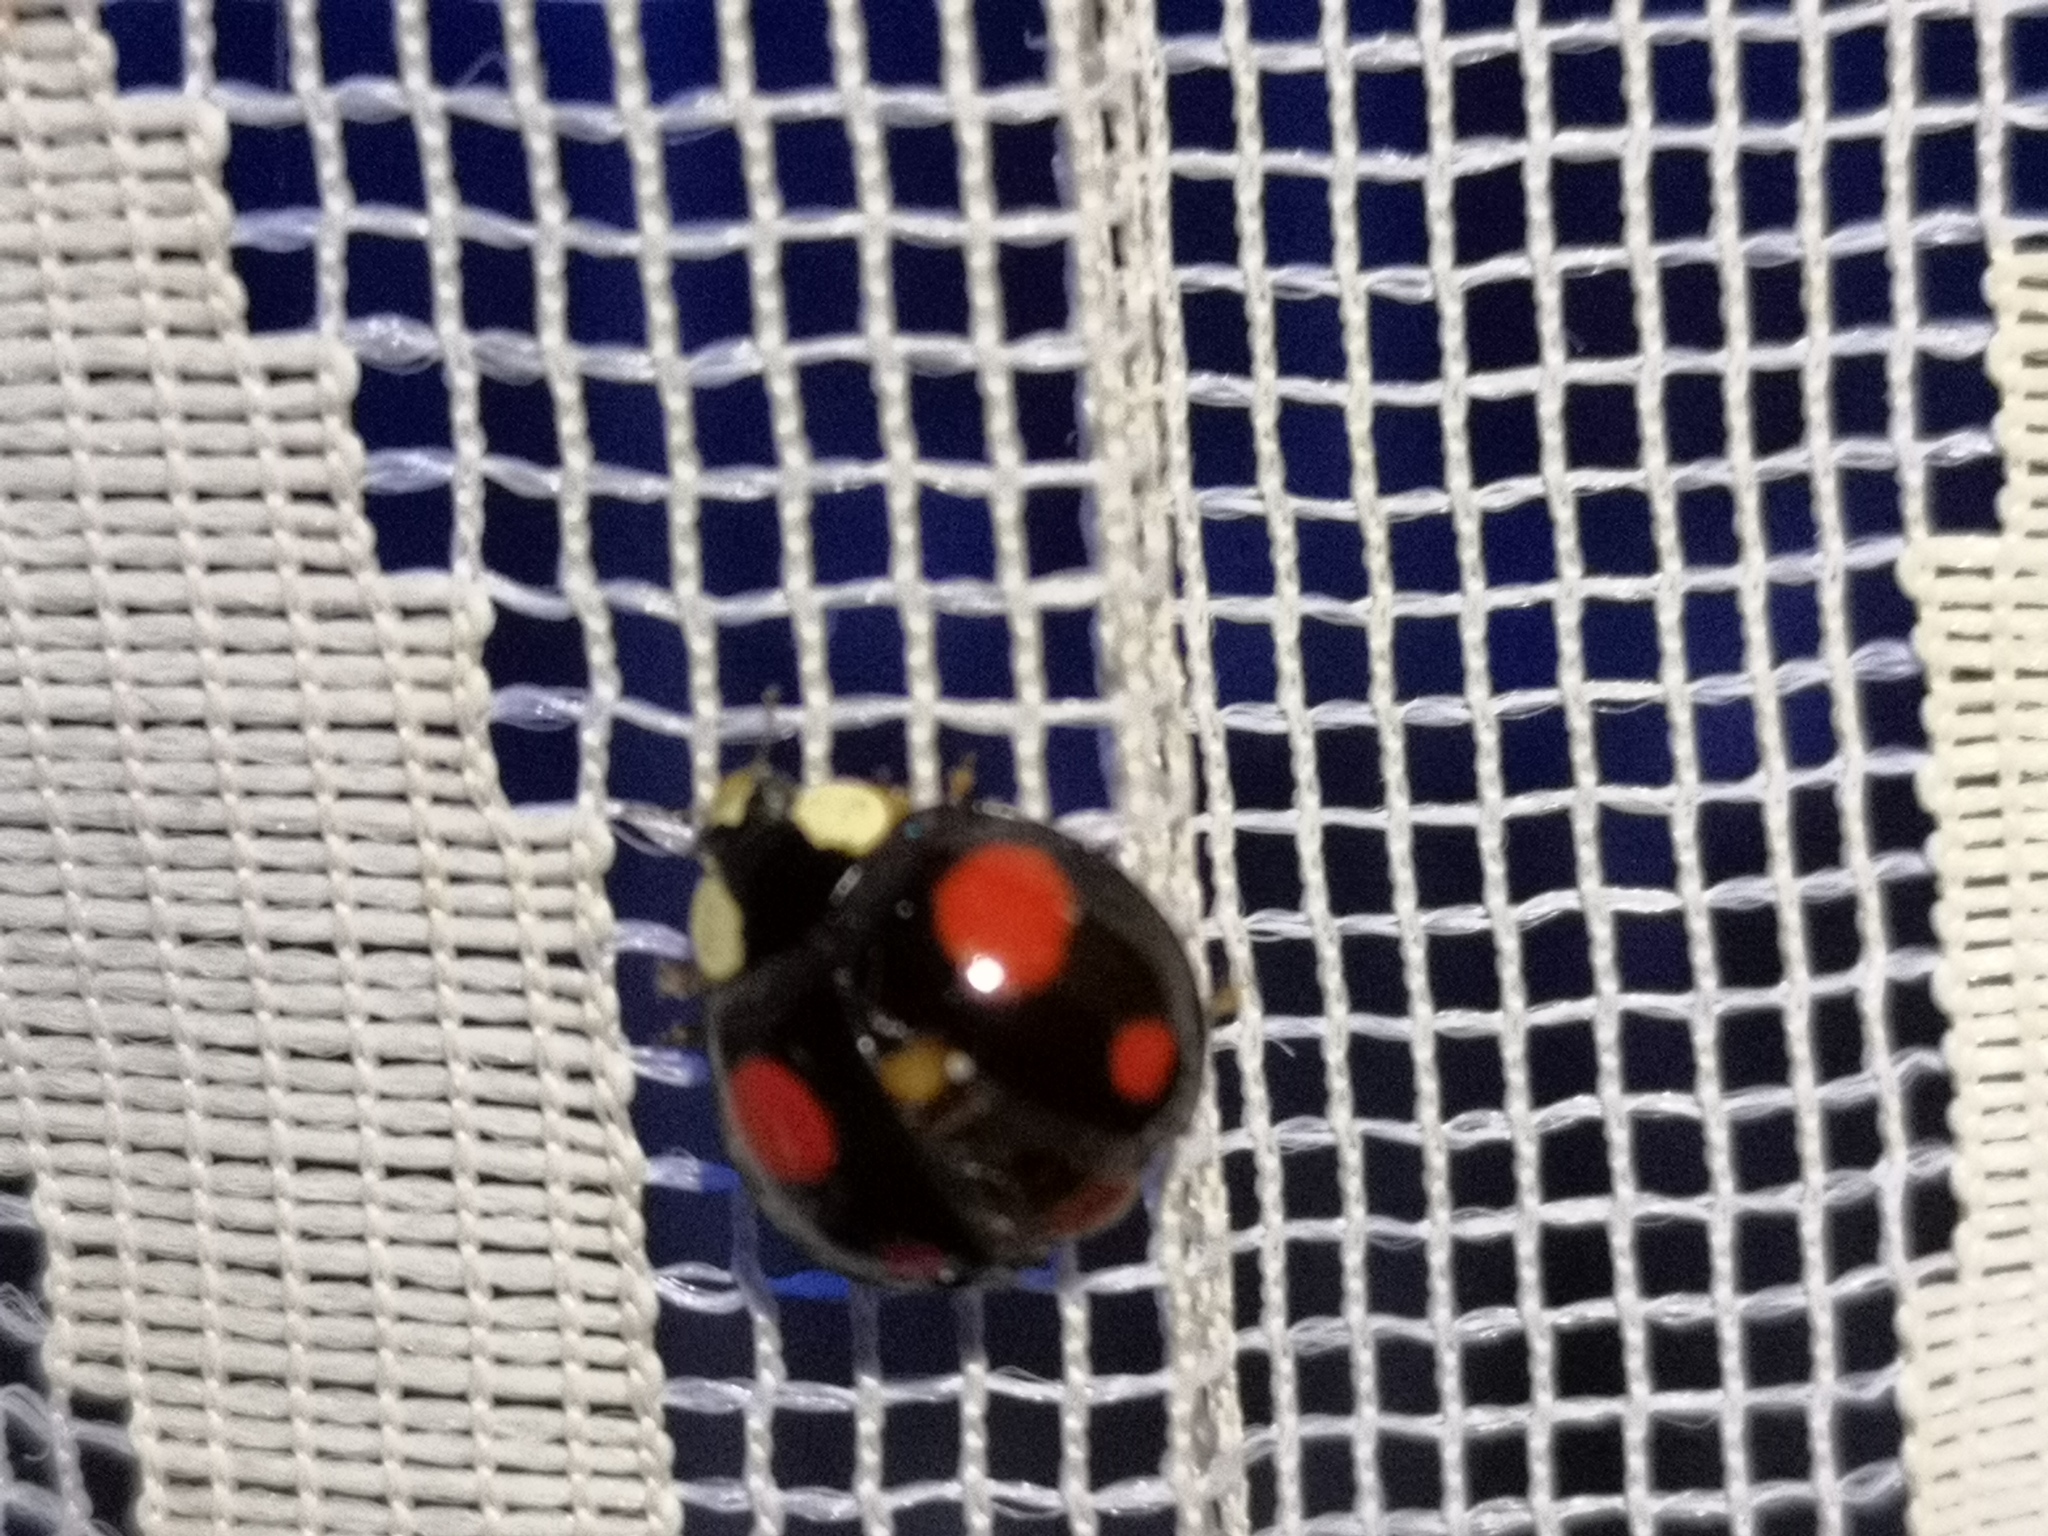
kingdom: Animalia
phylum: Arthropoda
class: Insecta
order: Coleoptera
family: Coccinellidae
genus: Harmonia
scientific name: Harmonia axyridis
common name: Harlequin ladybird
